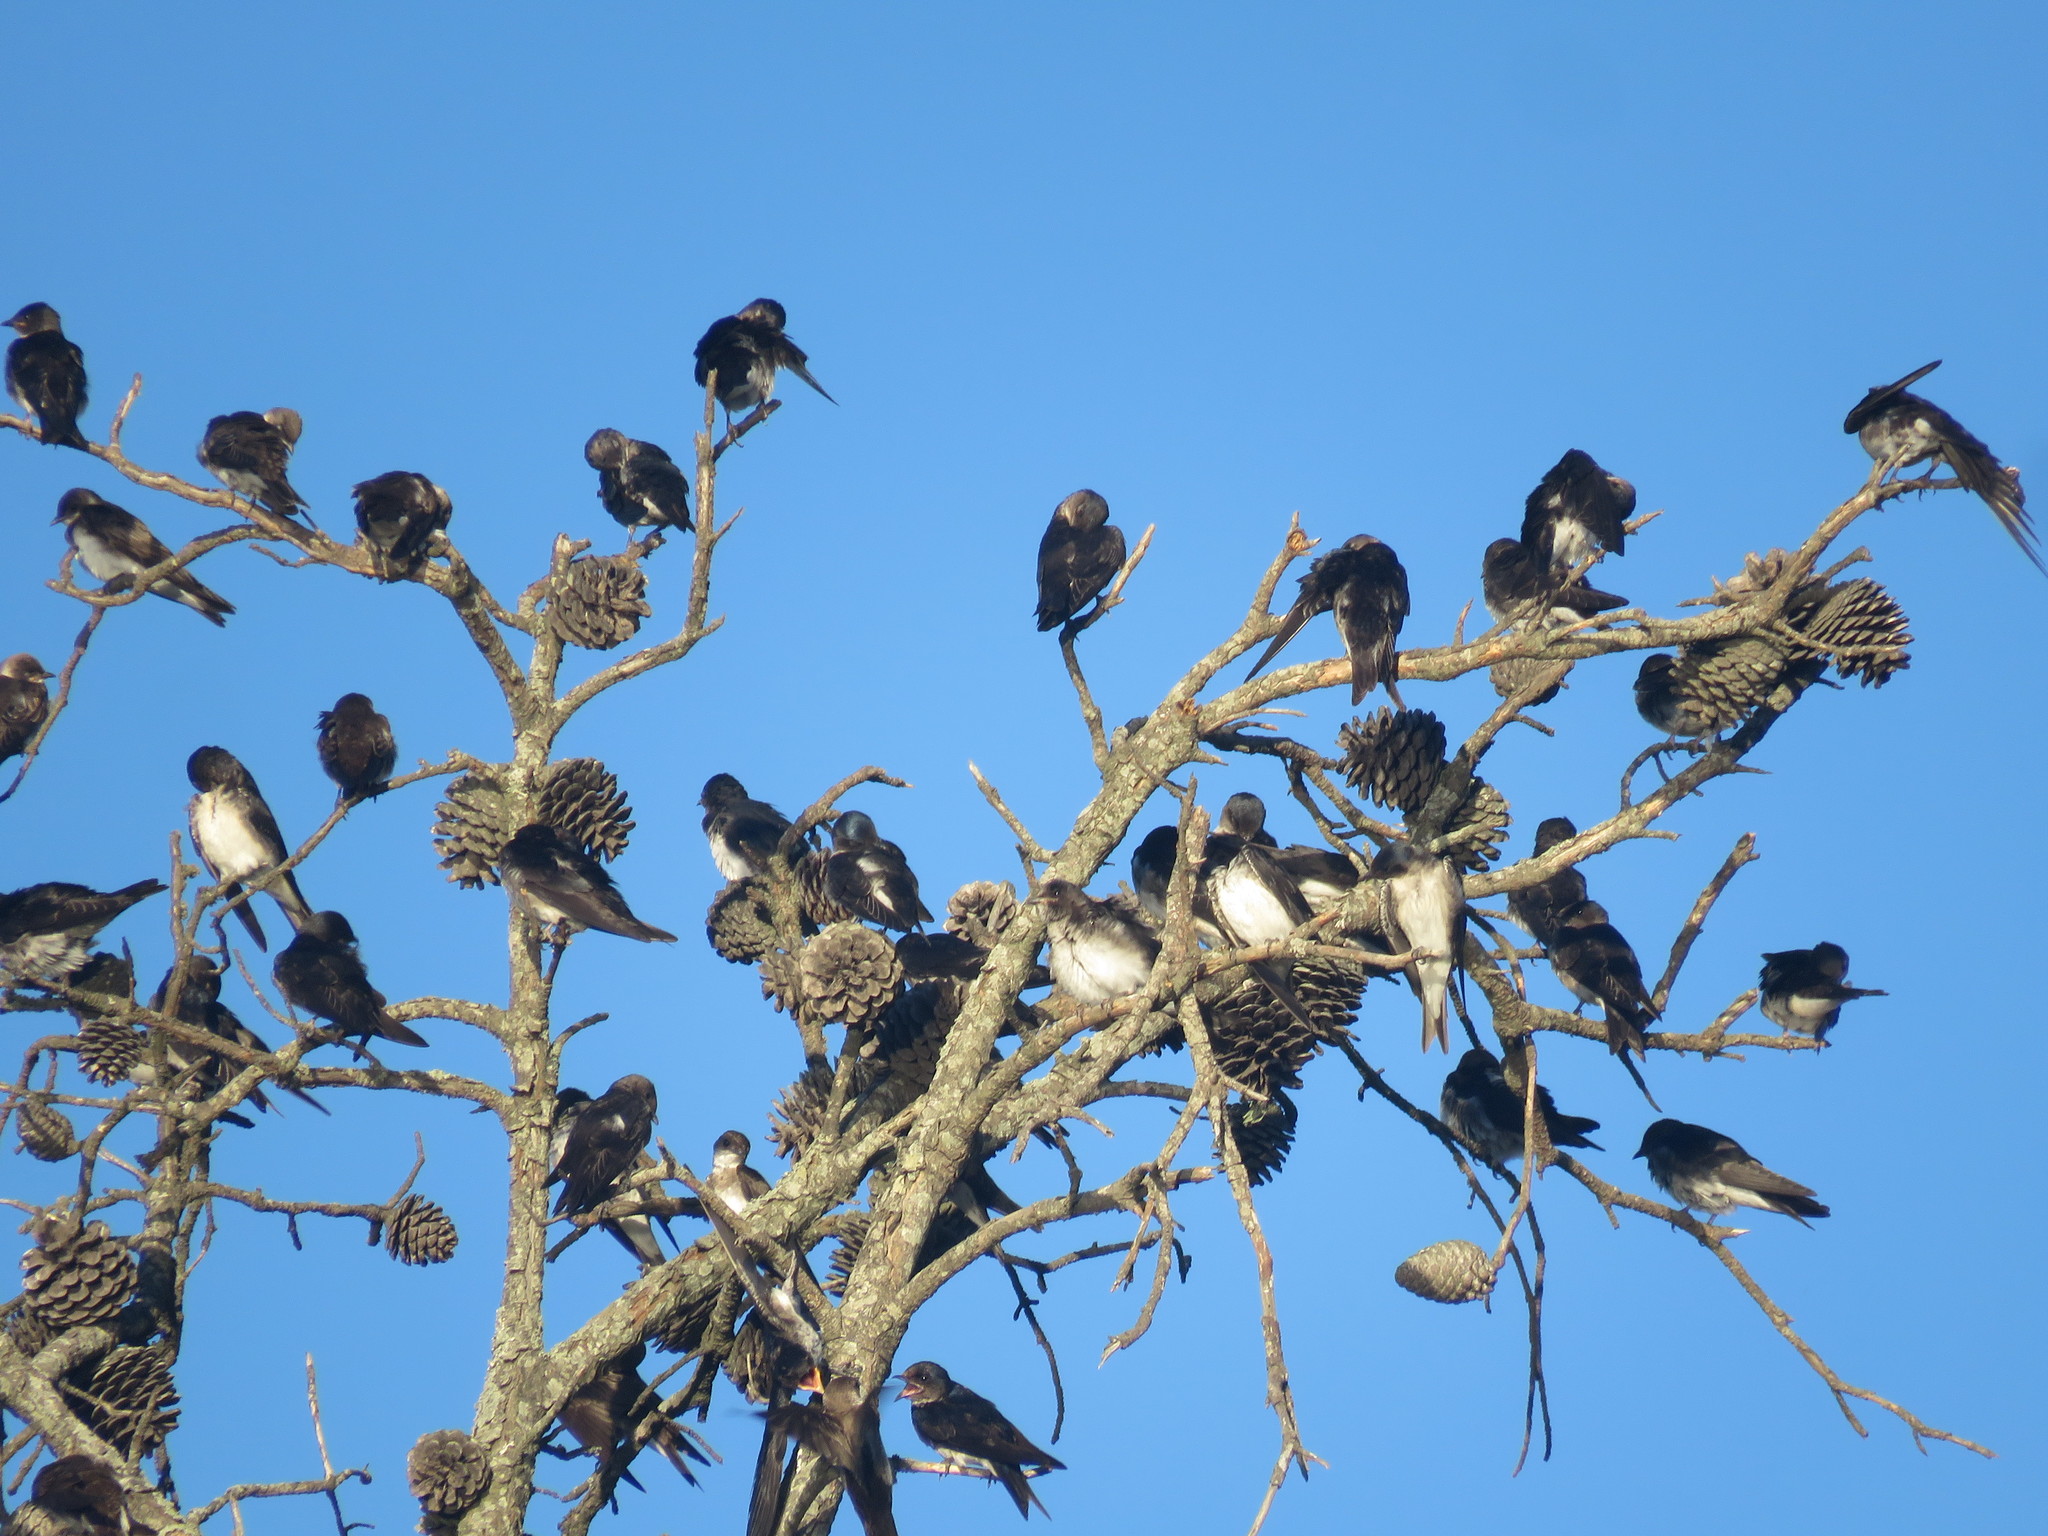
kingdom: Animalia
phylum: Chordata
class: Aves
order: Passeriformes
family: Hirundinidae
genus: Progne
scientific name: Progne chalybea
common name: Grey-breasted martin
